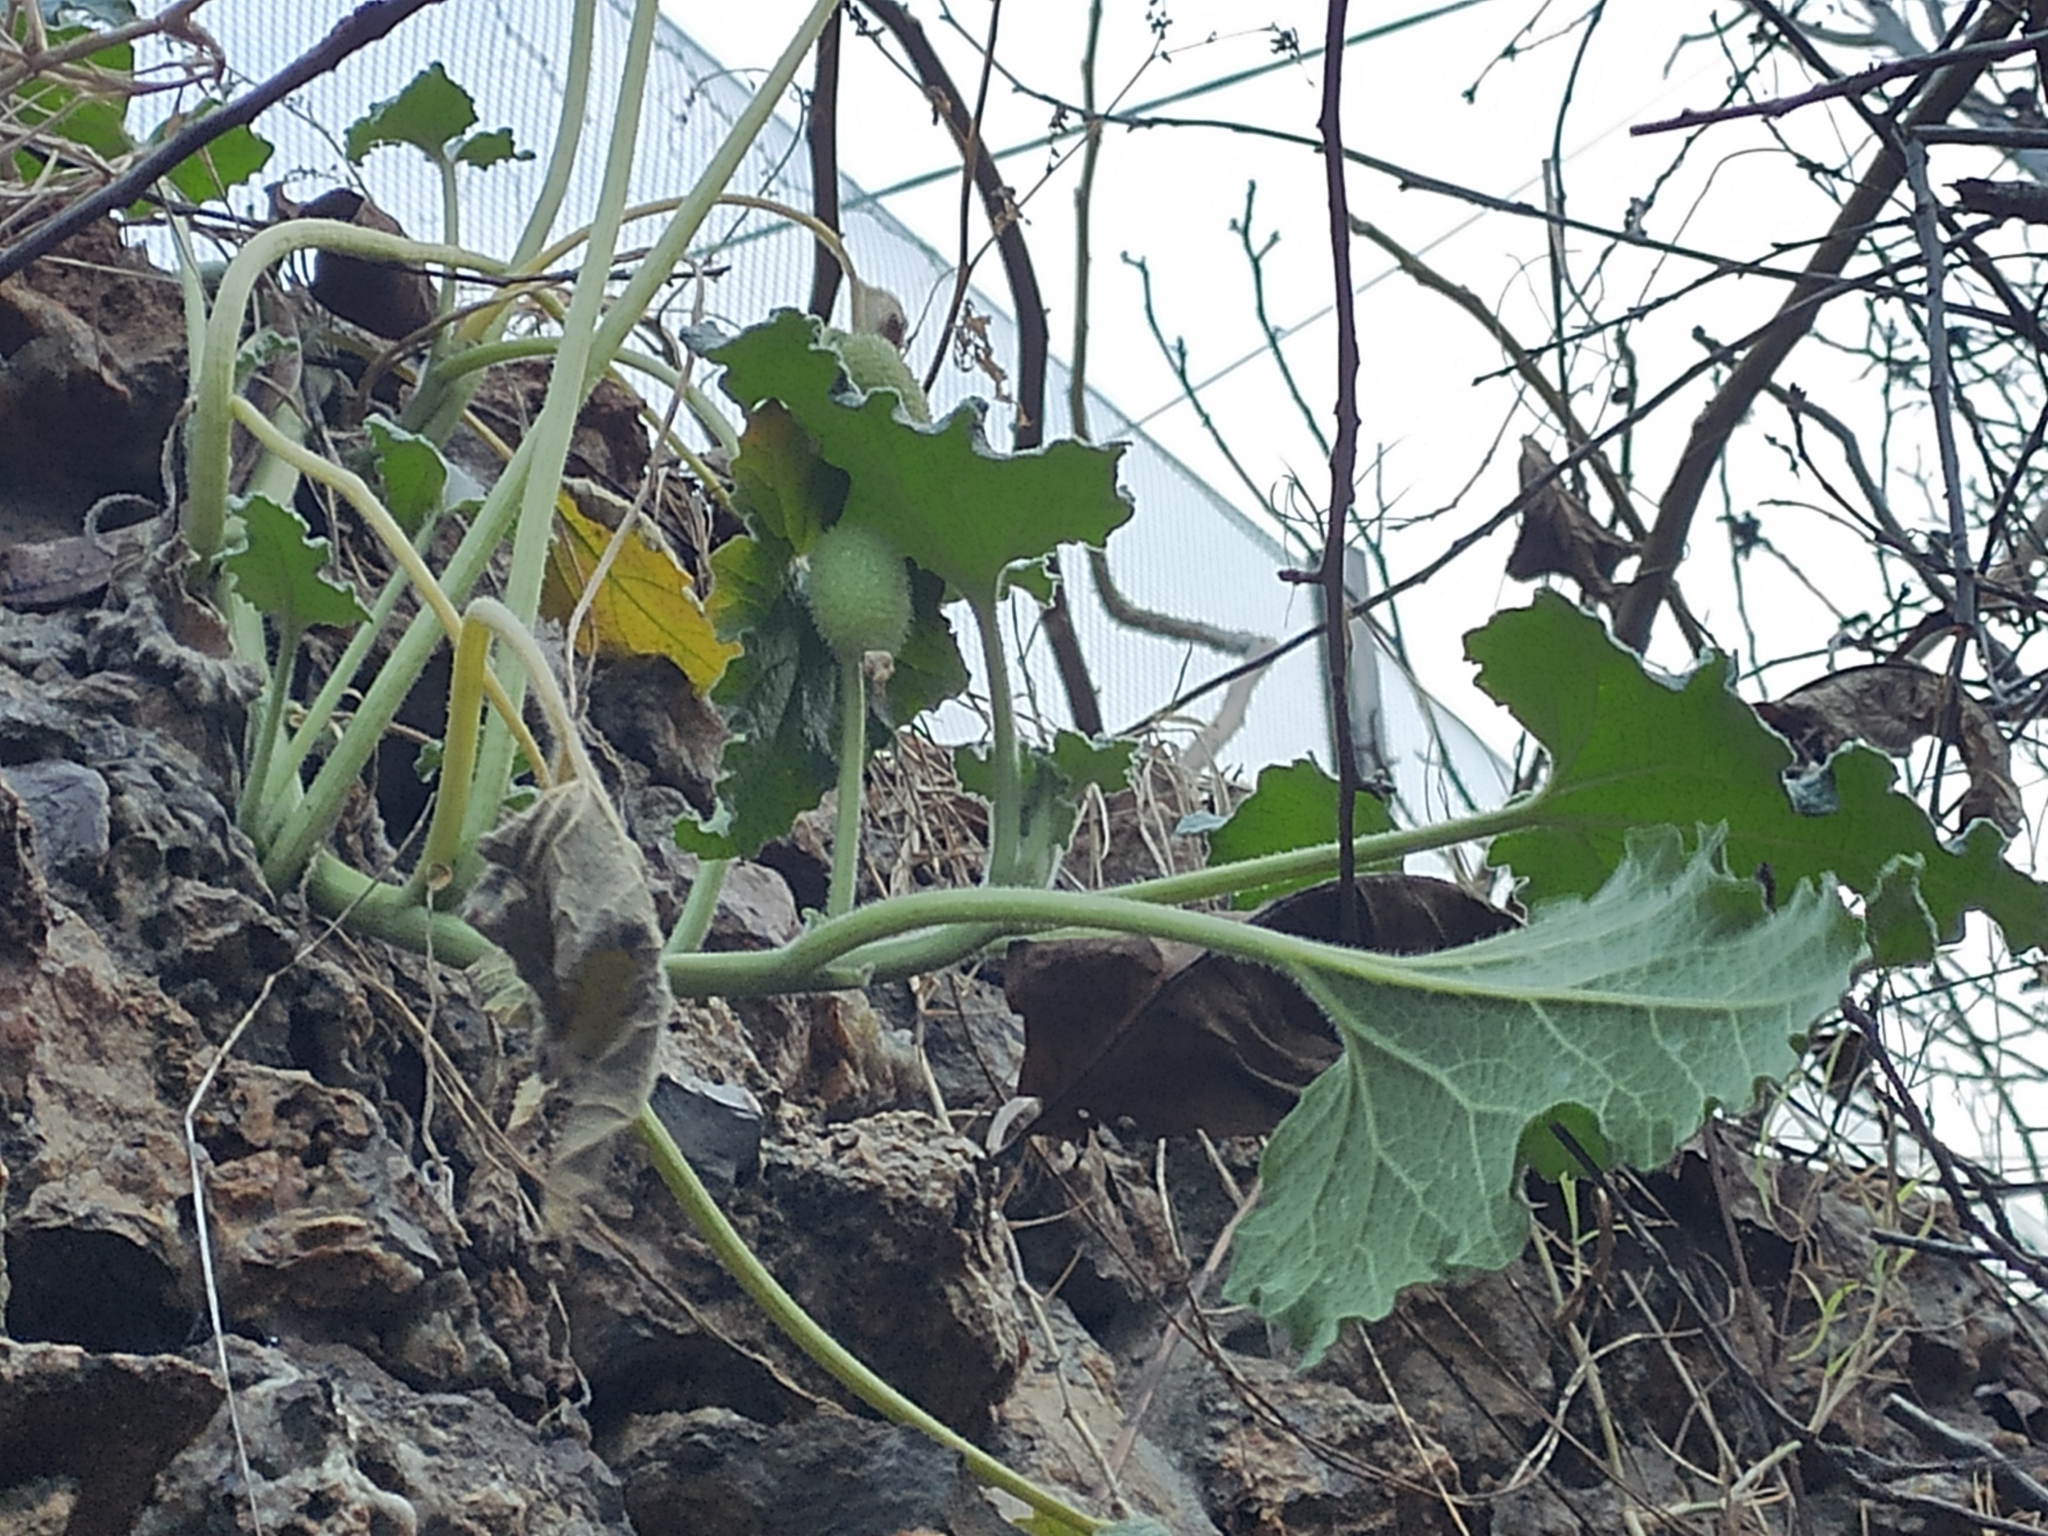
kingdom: Plantae
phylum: Tracheophyta
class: Magnoliopsida
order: Cucurbitales
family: Cucurbitaceae
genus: Ecballium
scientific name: Ecballium elaterium
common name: Squirting cucumber
